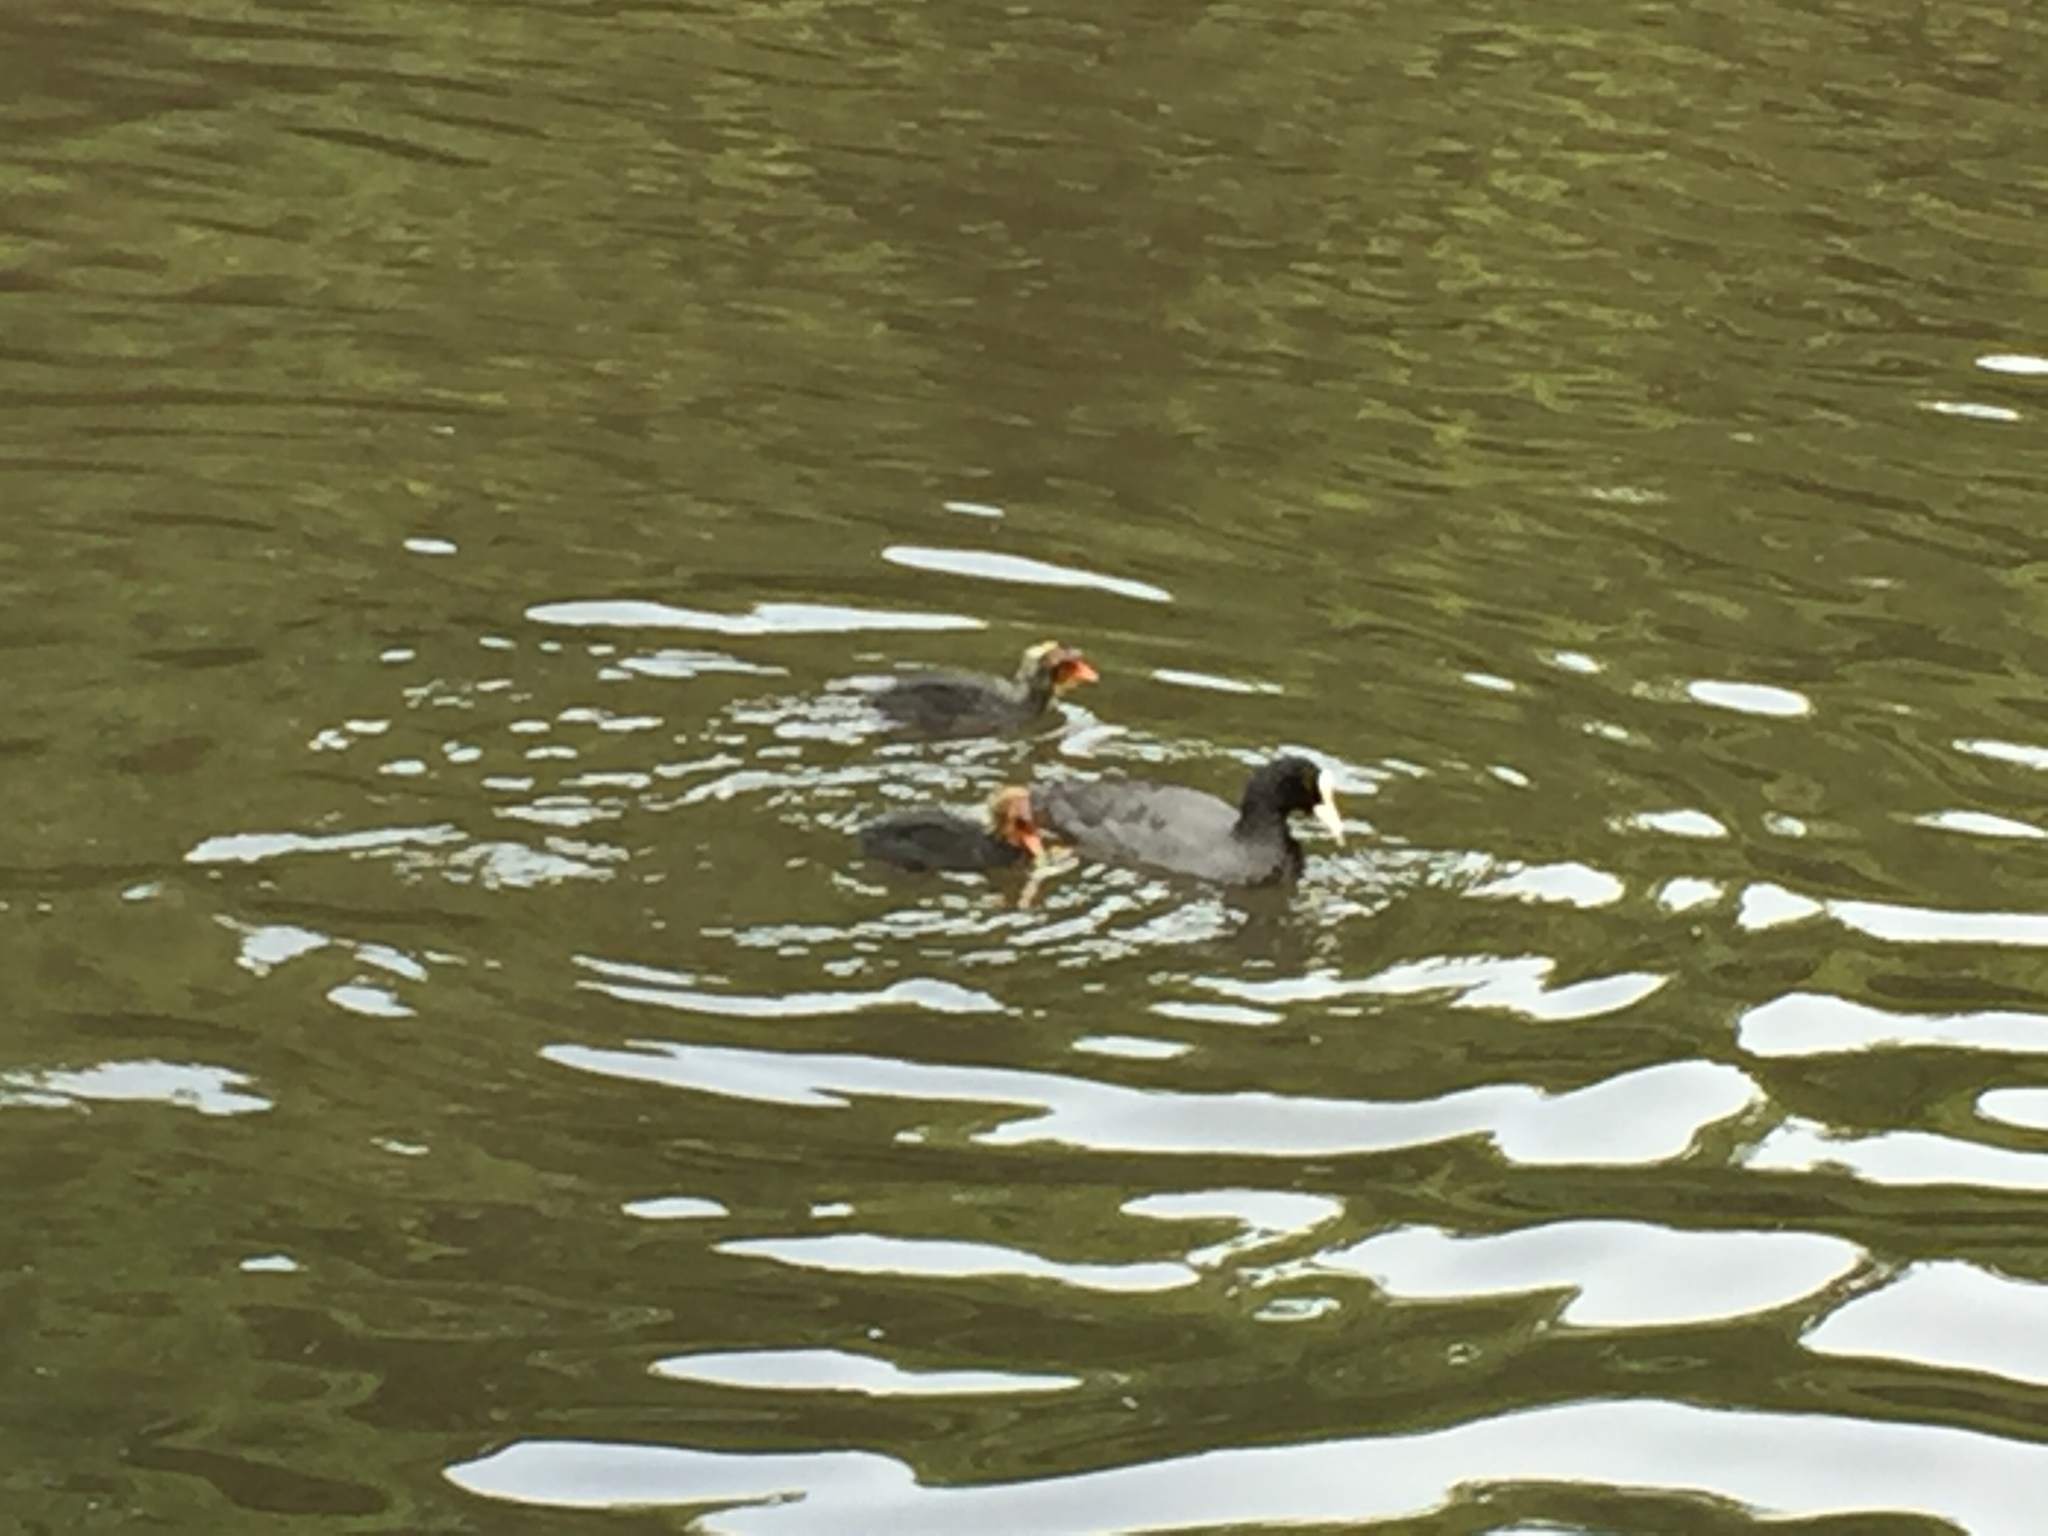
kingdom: Animalia
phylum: Chordata
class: Aves
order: Gruiformes
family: Rallidae
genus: Fulica
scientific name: Fulica atra
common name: Eurasian coot
